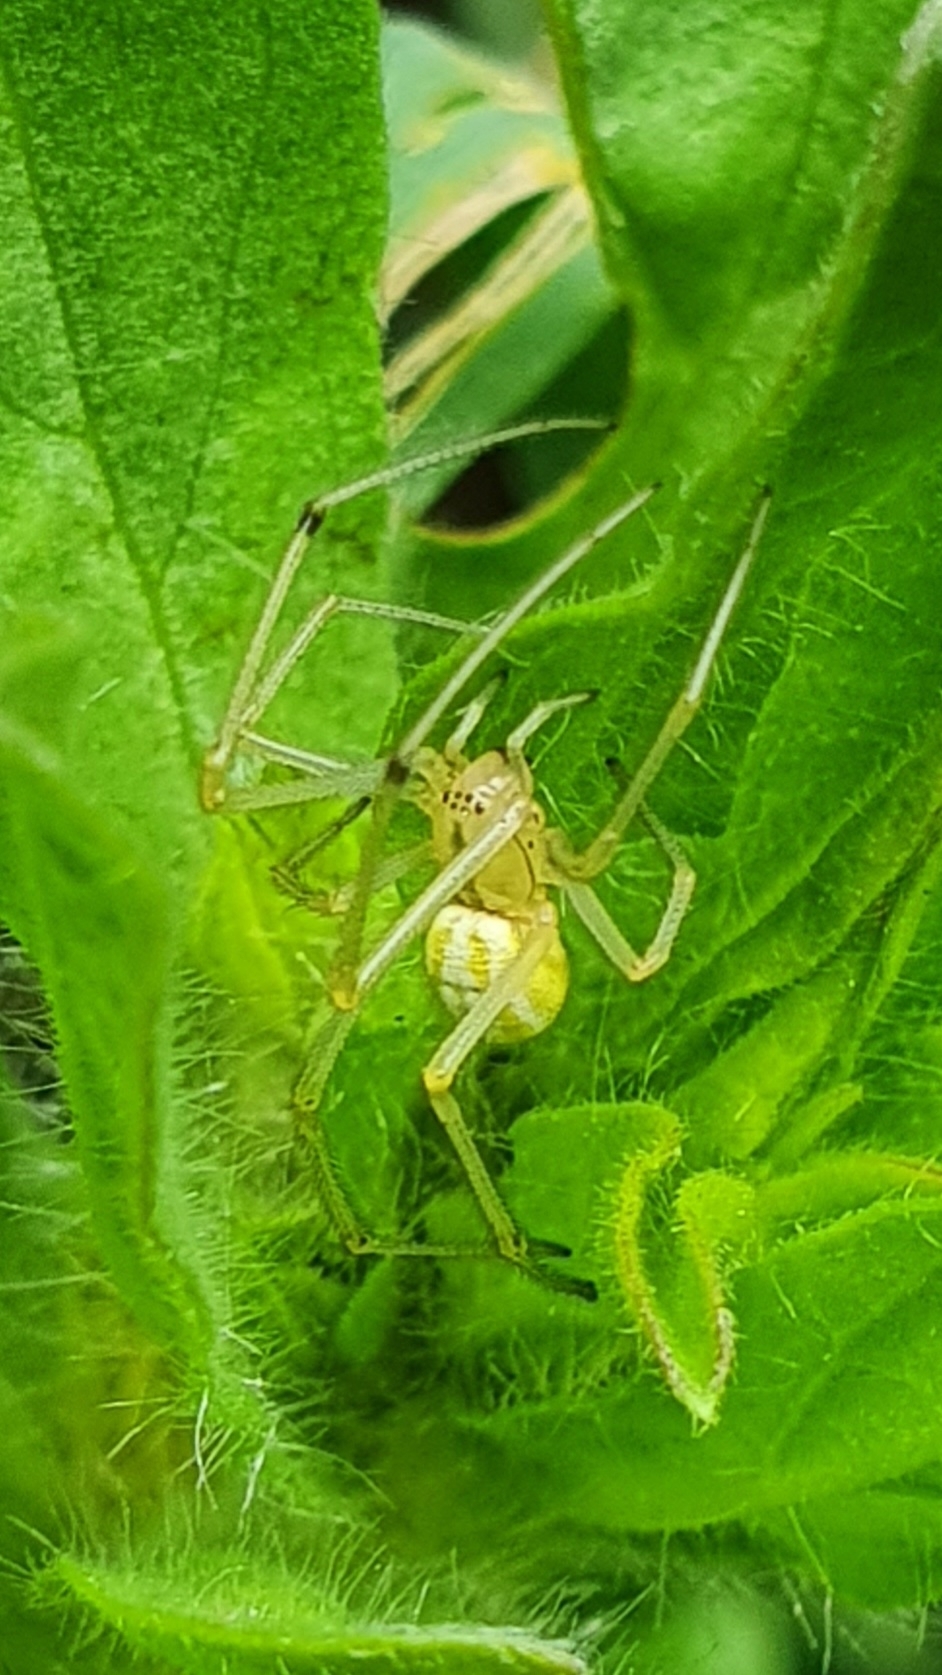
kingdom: Animalia
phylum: Arthropoda
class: Arachnida
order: Araneae
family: Theridiidae
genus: Enoplognatha
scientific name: Enoplognatha ovata
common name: Common candy-striped spider
